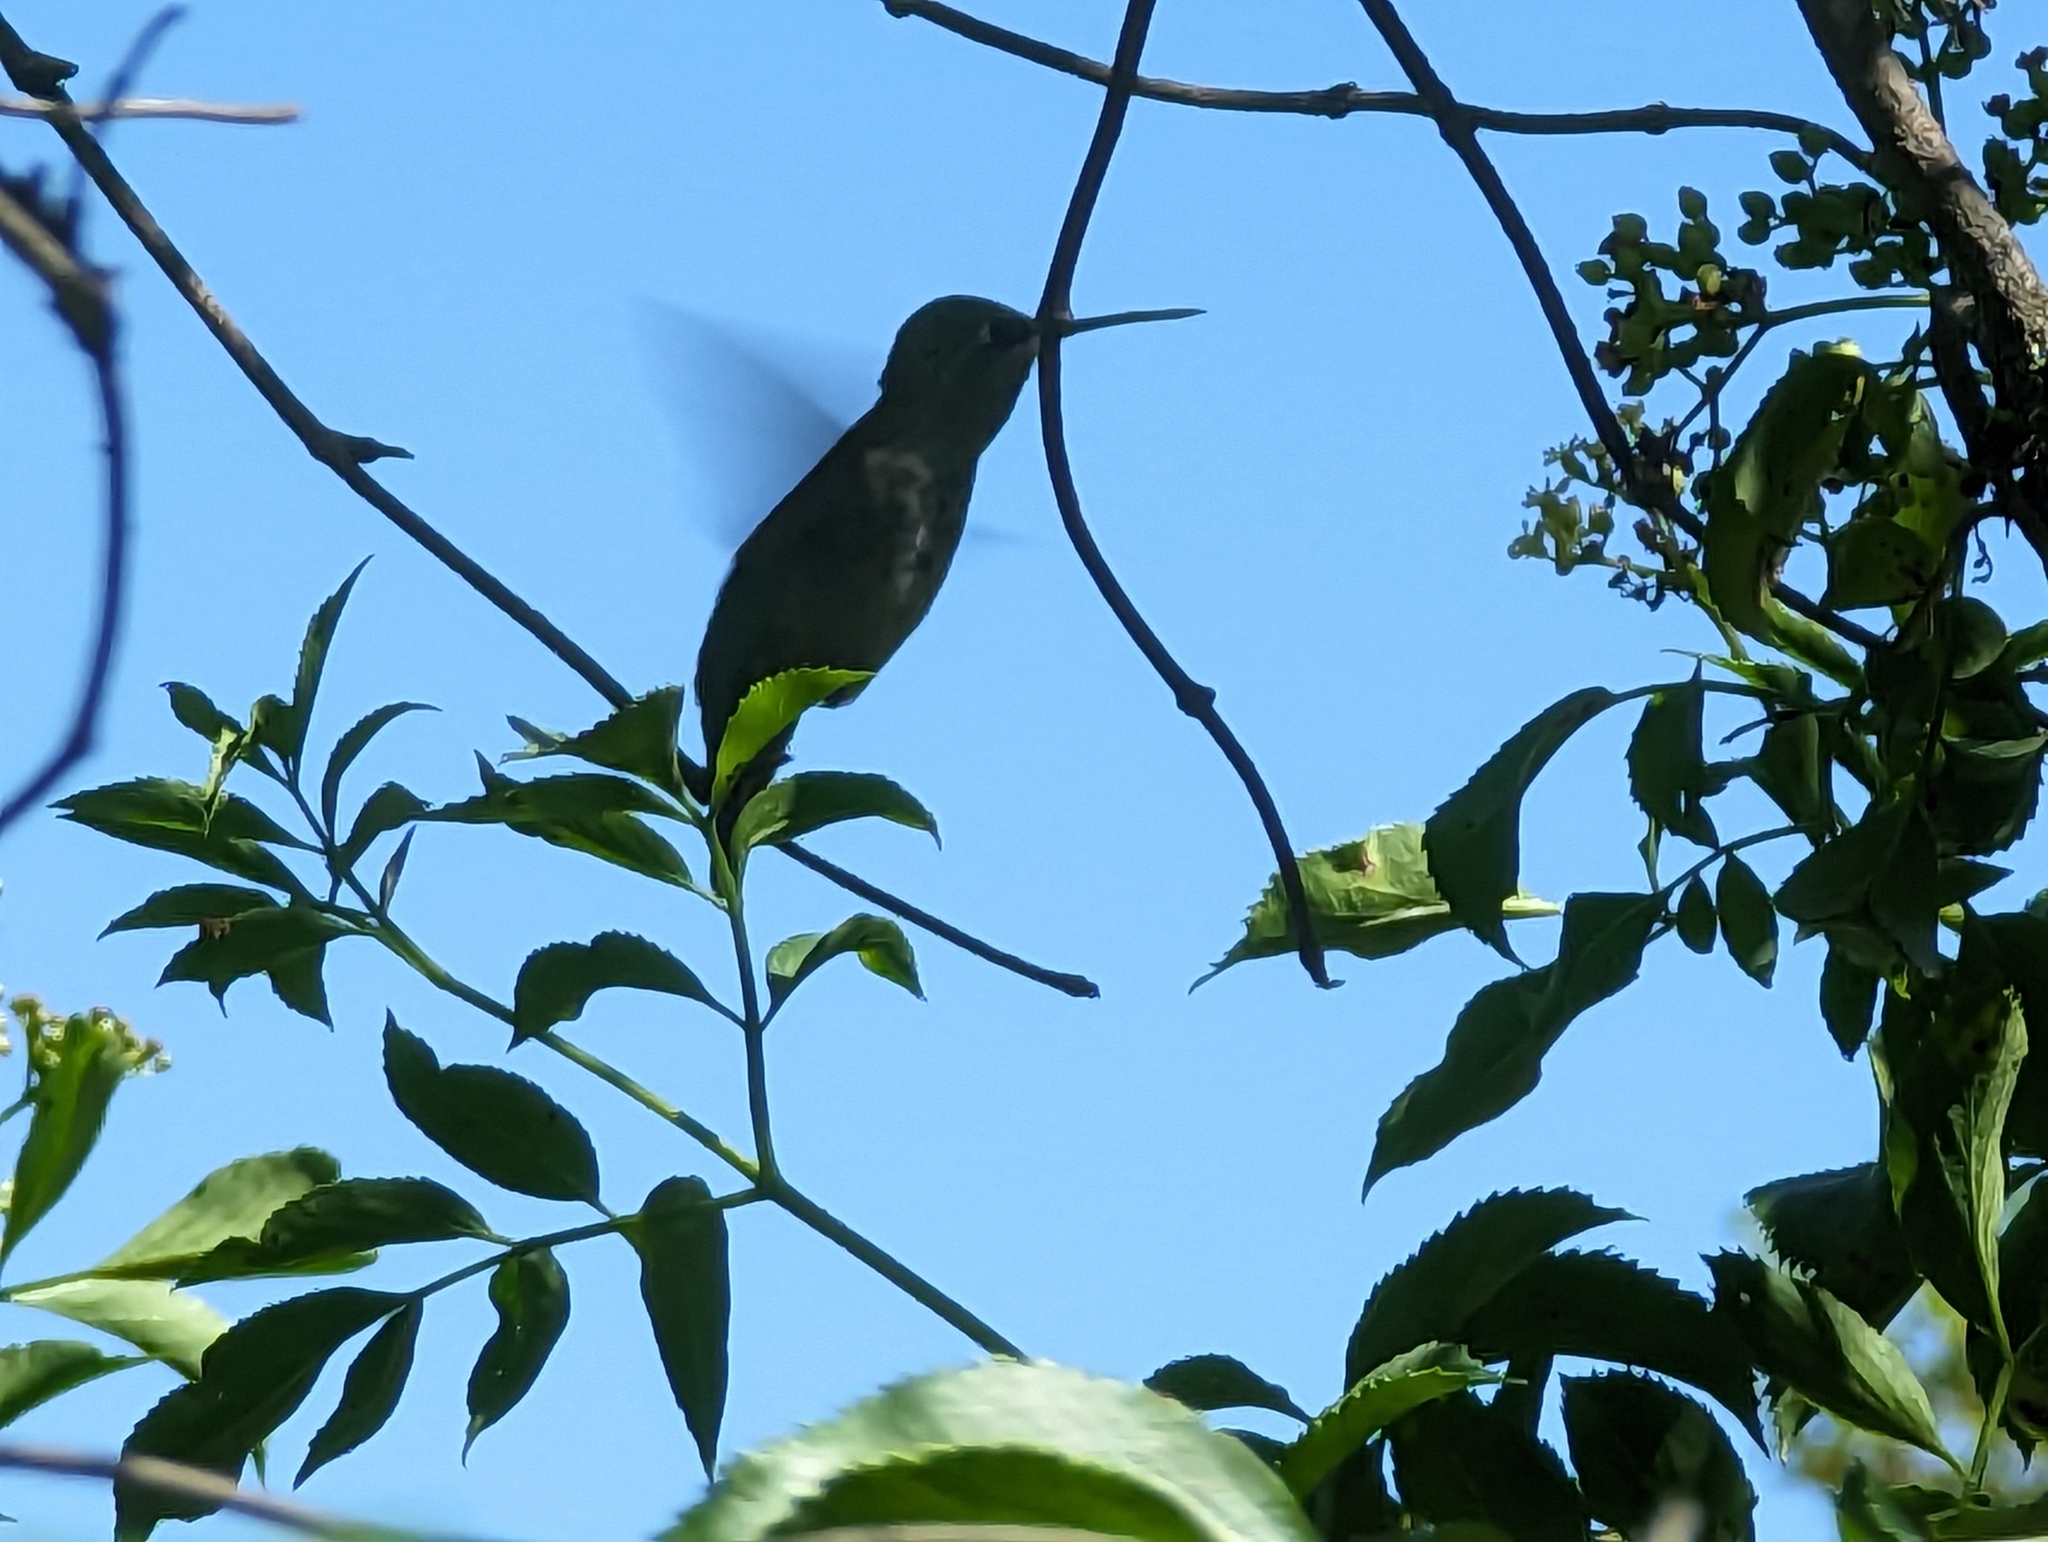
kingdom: Animalia
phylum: Chordata
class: Aves
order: Apodiformes
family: Trochilidae
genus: Calypte
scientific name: Calypte anna
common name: Anna's hummingbird
